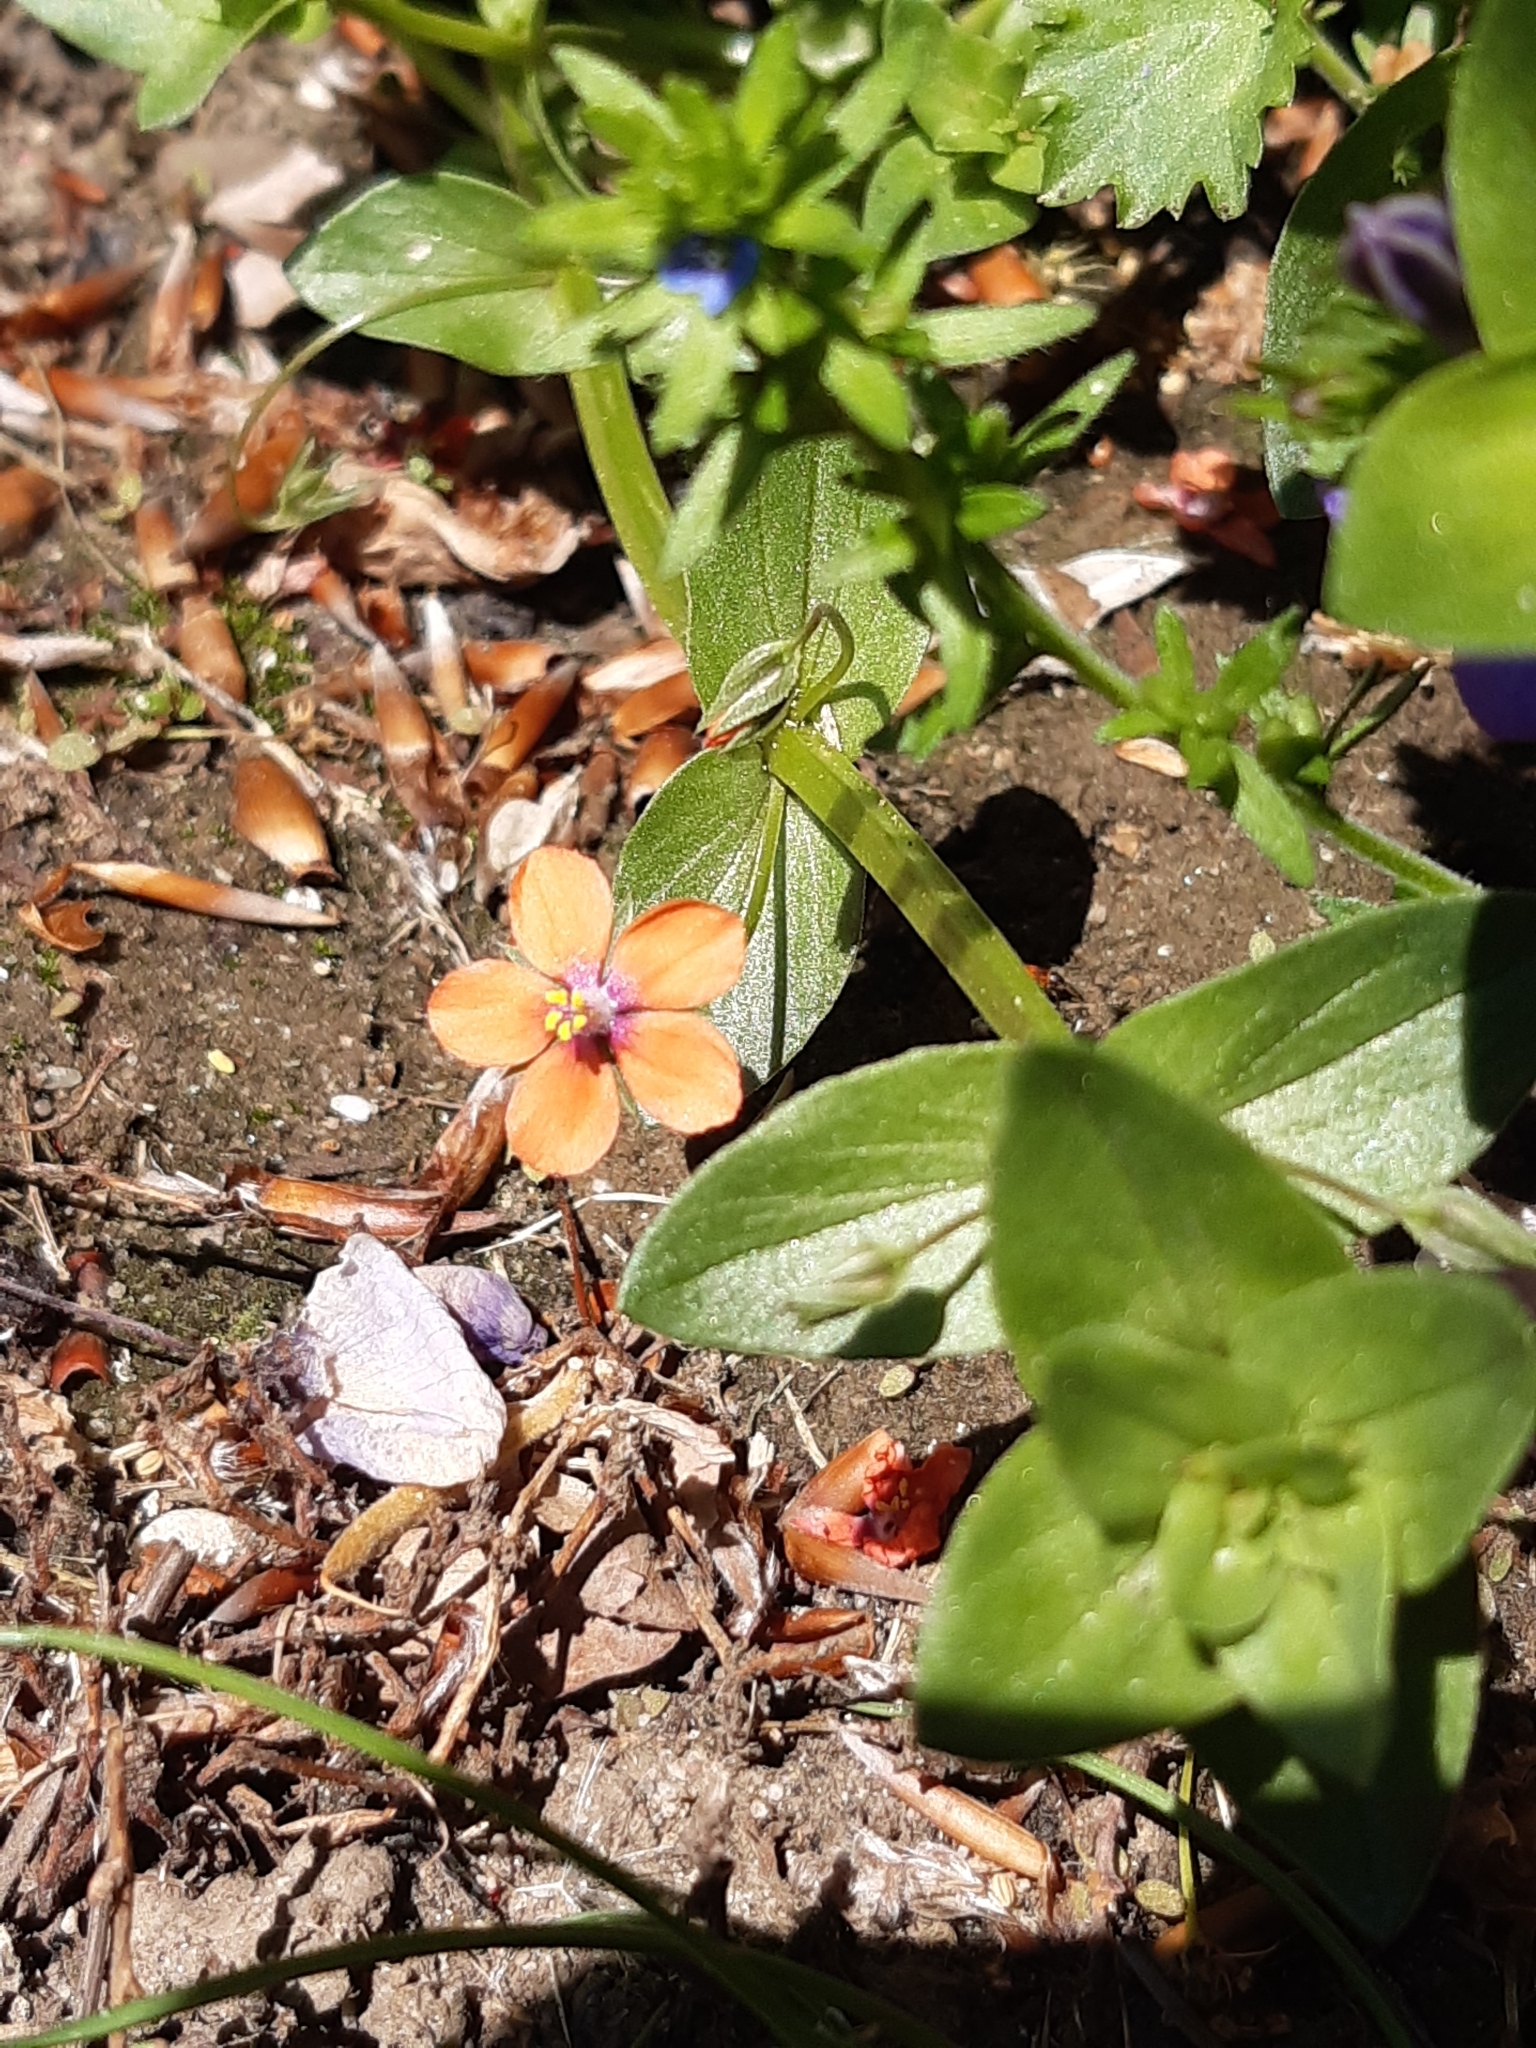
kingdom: Plantae
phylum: Tracheophyta
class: Magnoliopsida
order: Ericales
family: Primulaceae
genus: Lysimachia
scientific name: Lysimachia arvensis
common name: Scarlet pimpernel
